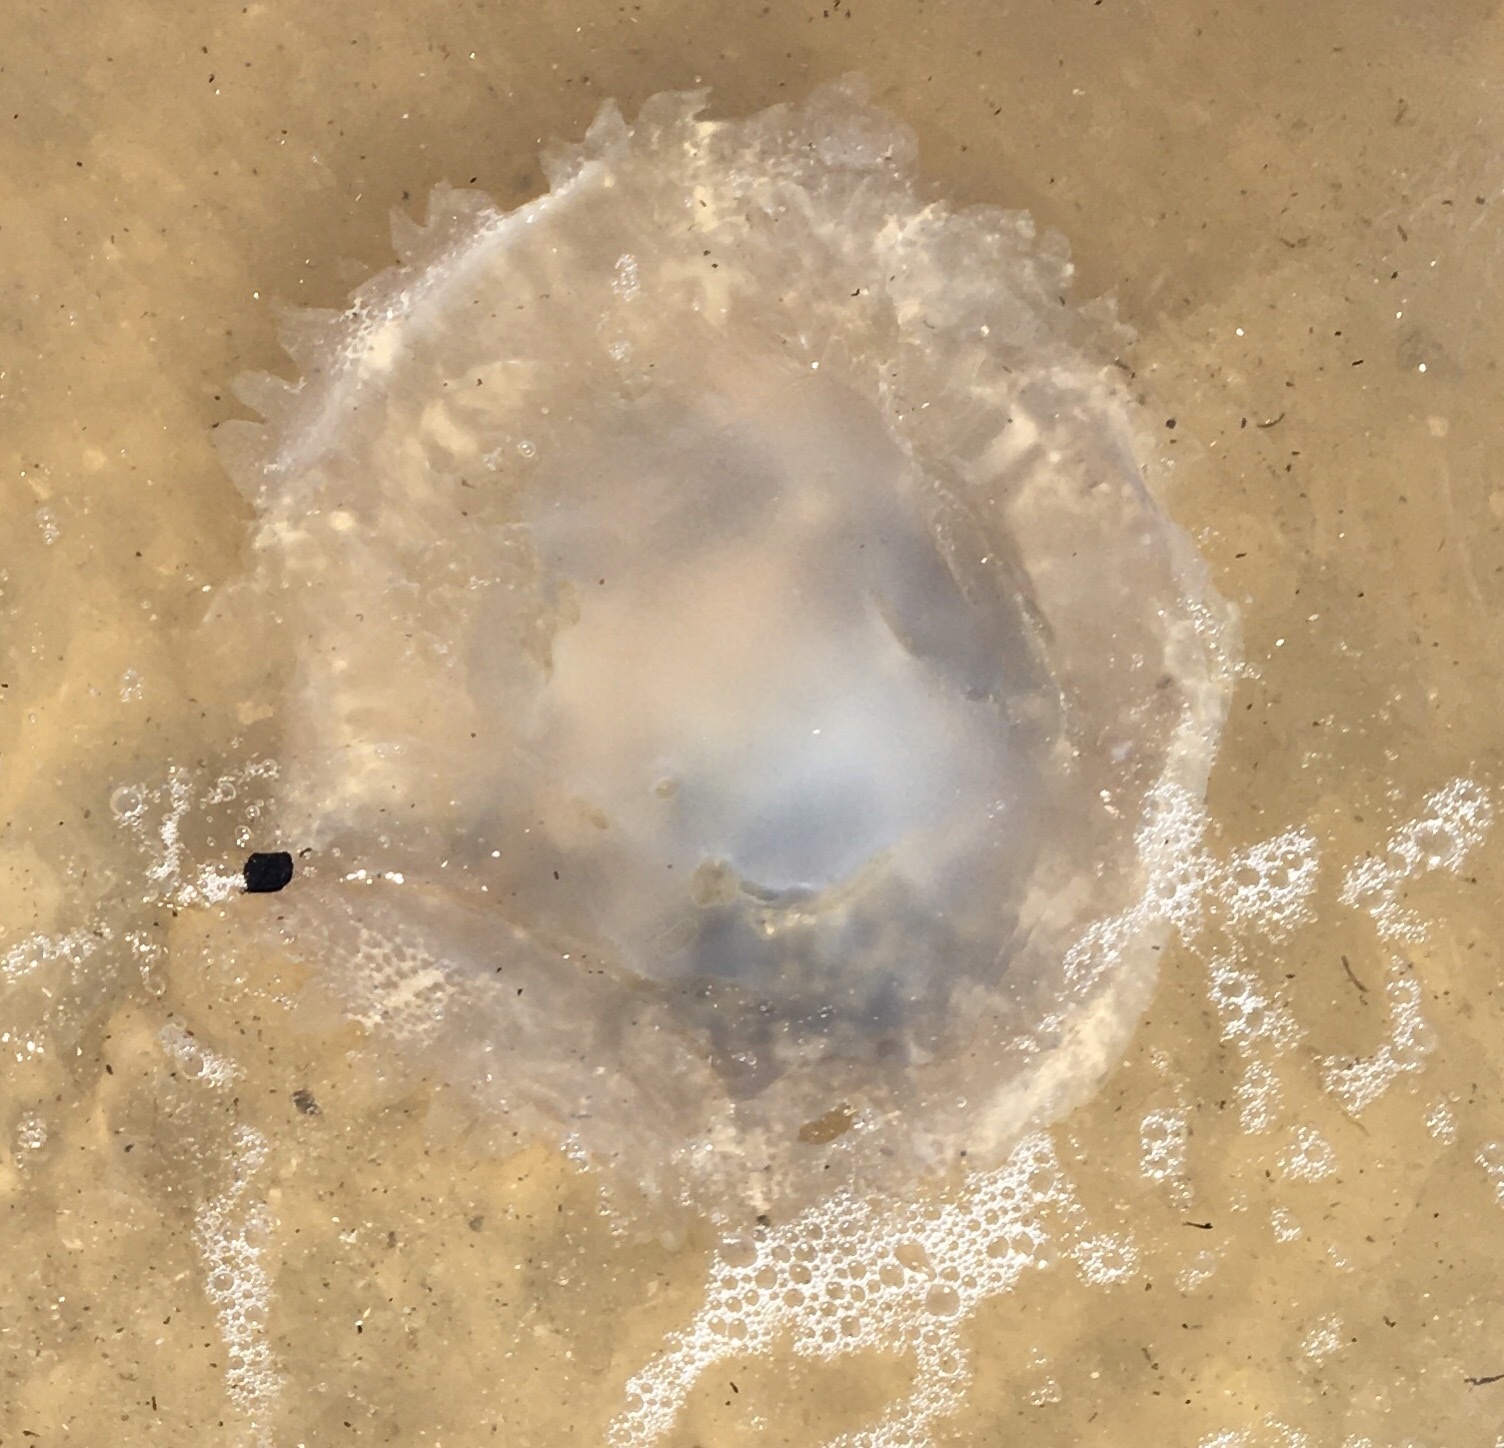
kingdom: Animalia
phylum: Cnidaria
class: Scyphozoa
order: Rhizostomeae
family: Rhizostomatidae
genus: Rhopilema
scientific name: Rhopilema verrilli
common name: Mushroom cap jellyfish
